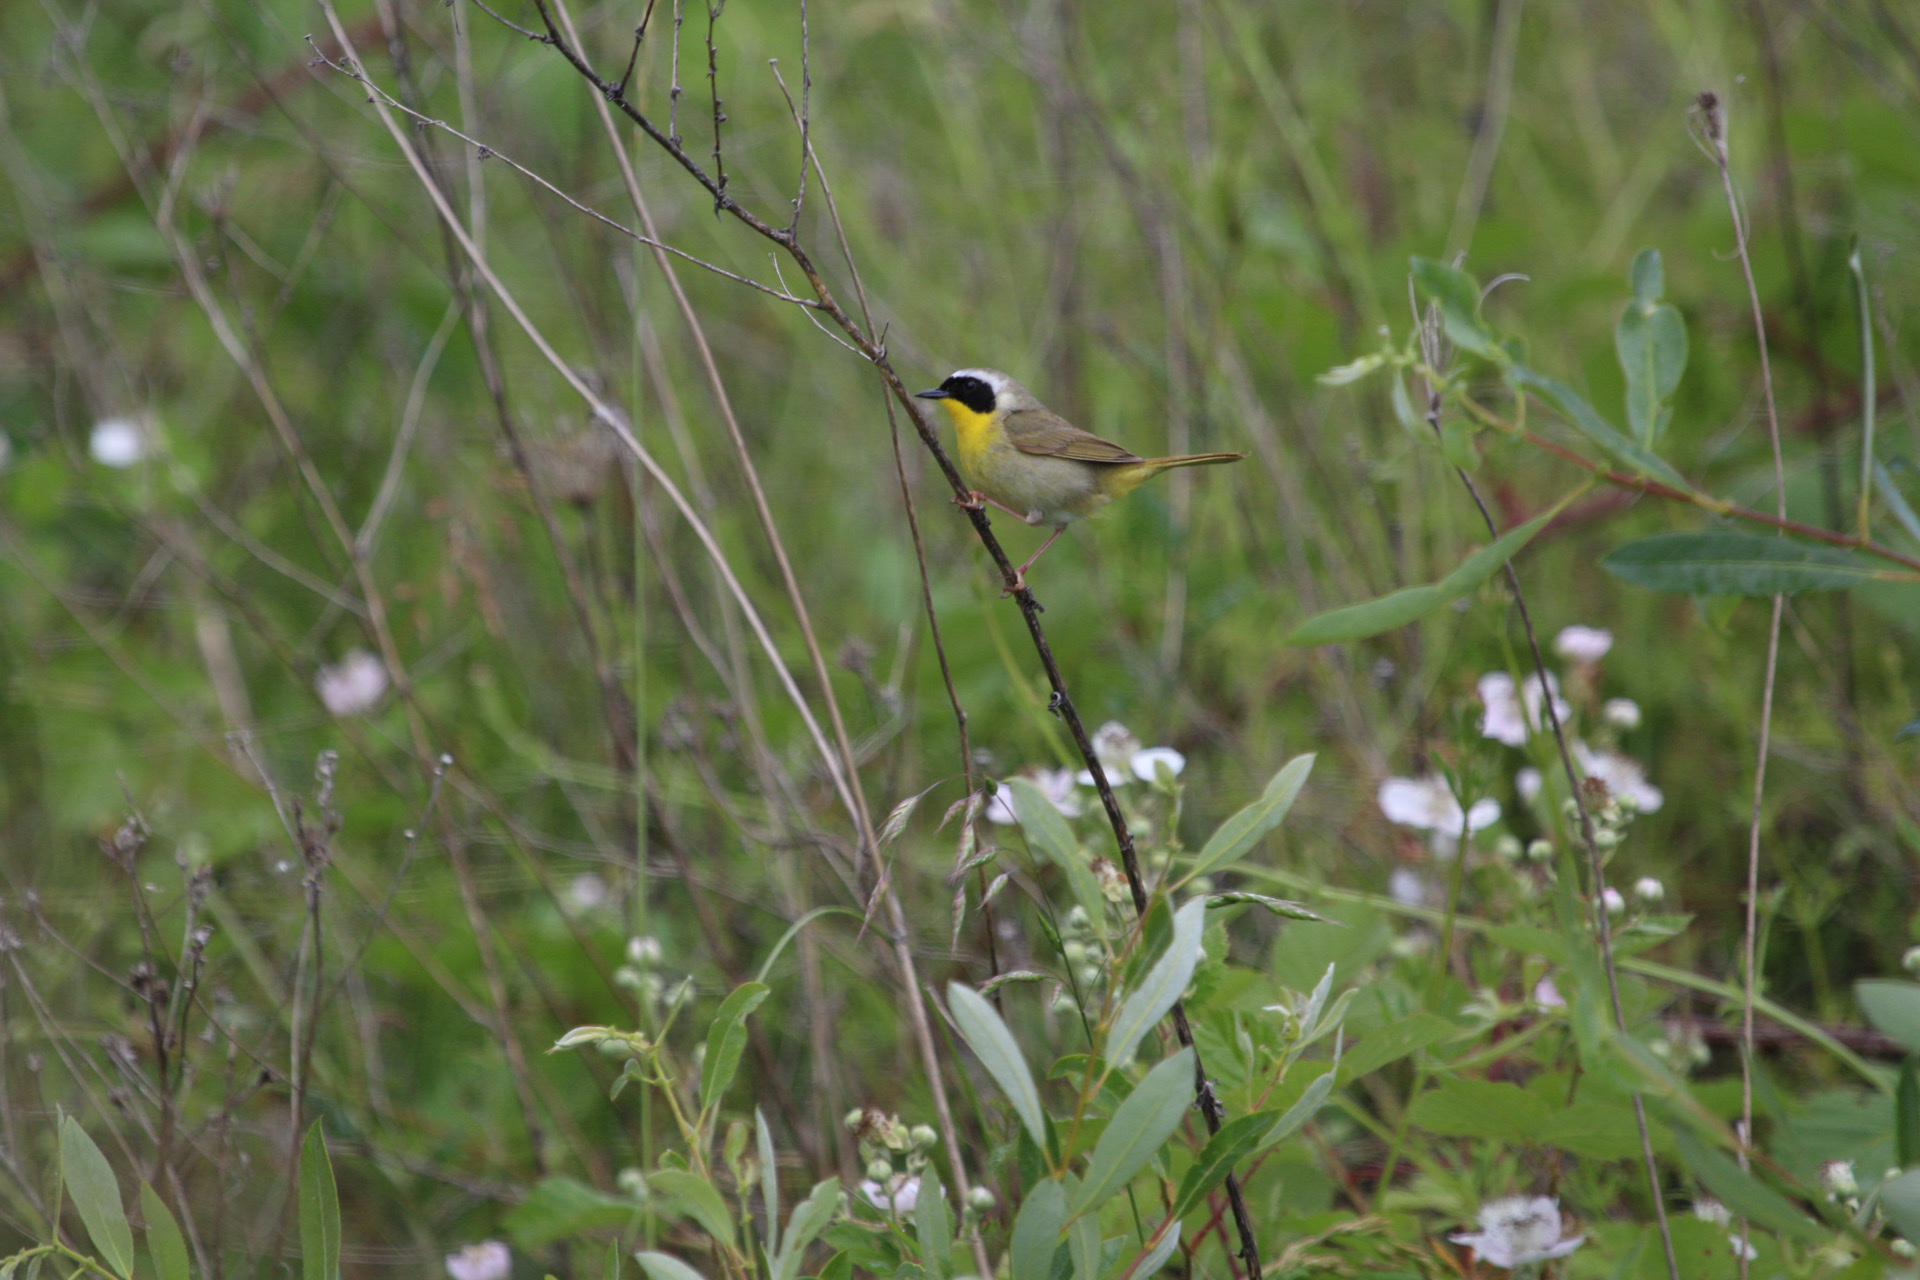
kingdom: Animalia
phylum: Chordata
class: Aves
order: Passeriformes
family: Parulidae
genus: Geothlypis
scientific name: Geothlypis trichas
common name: Common yellowthroat
